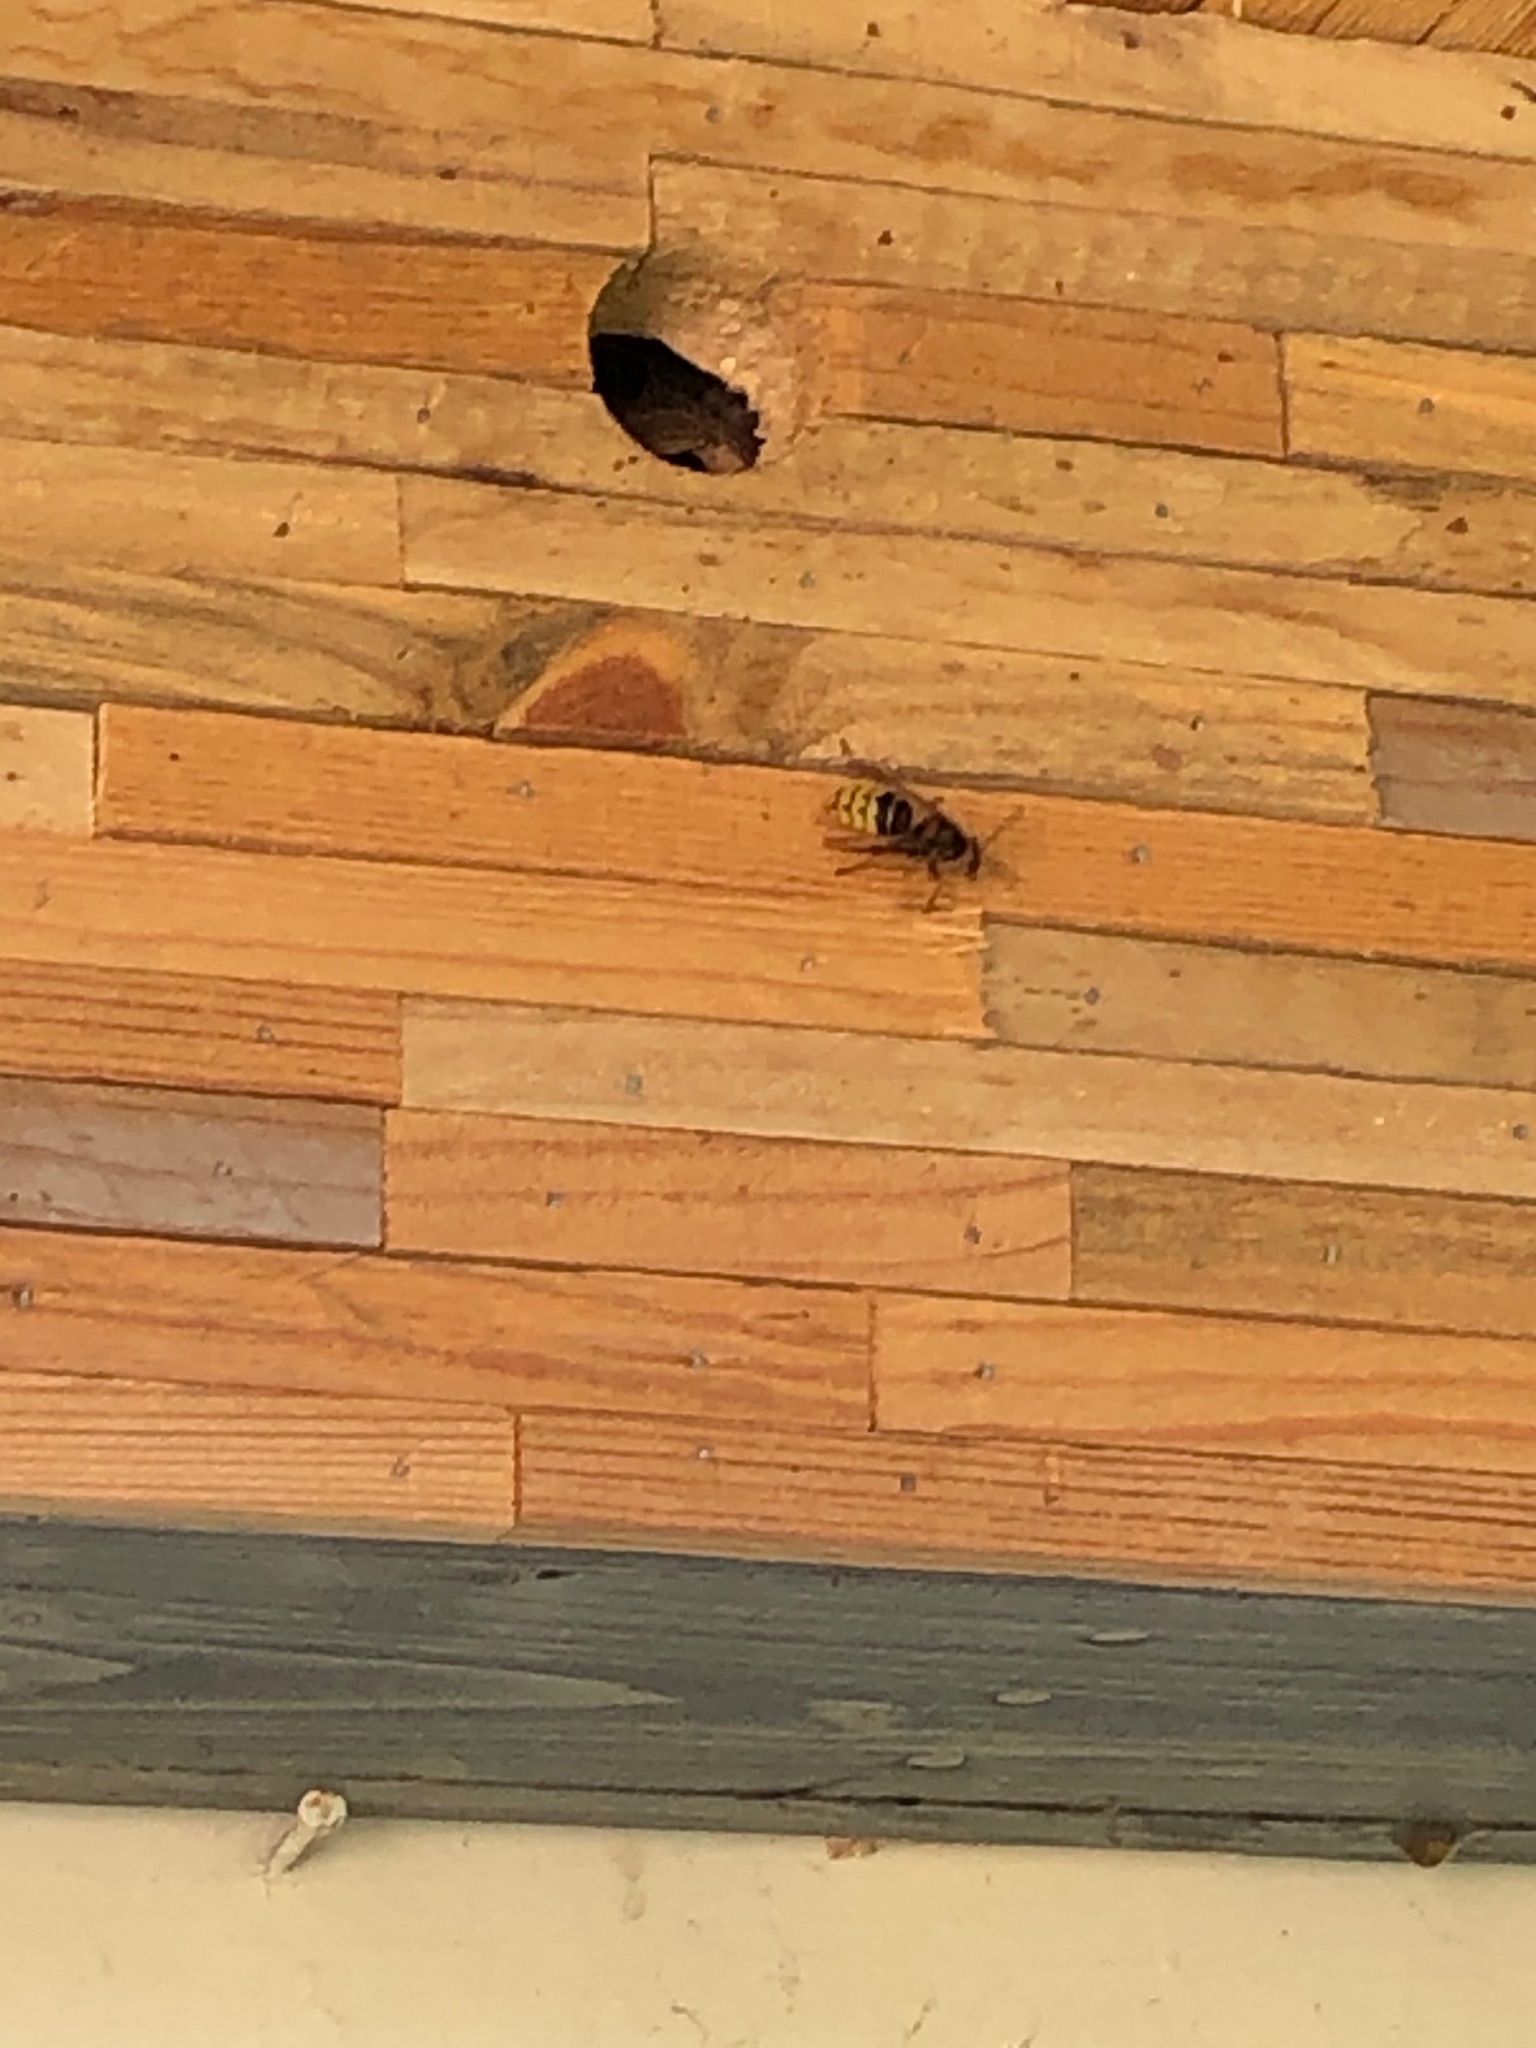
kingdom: Animalia
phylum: Arthropoda
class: Insecta
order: Hymenoptera
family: Vespidae
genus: Vespa
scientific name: Vespa crabro
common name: Hornet
